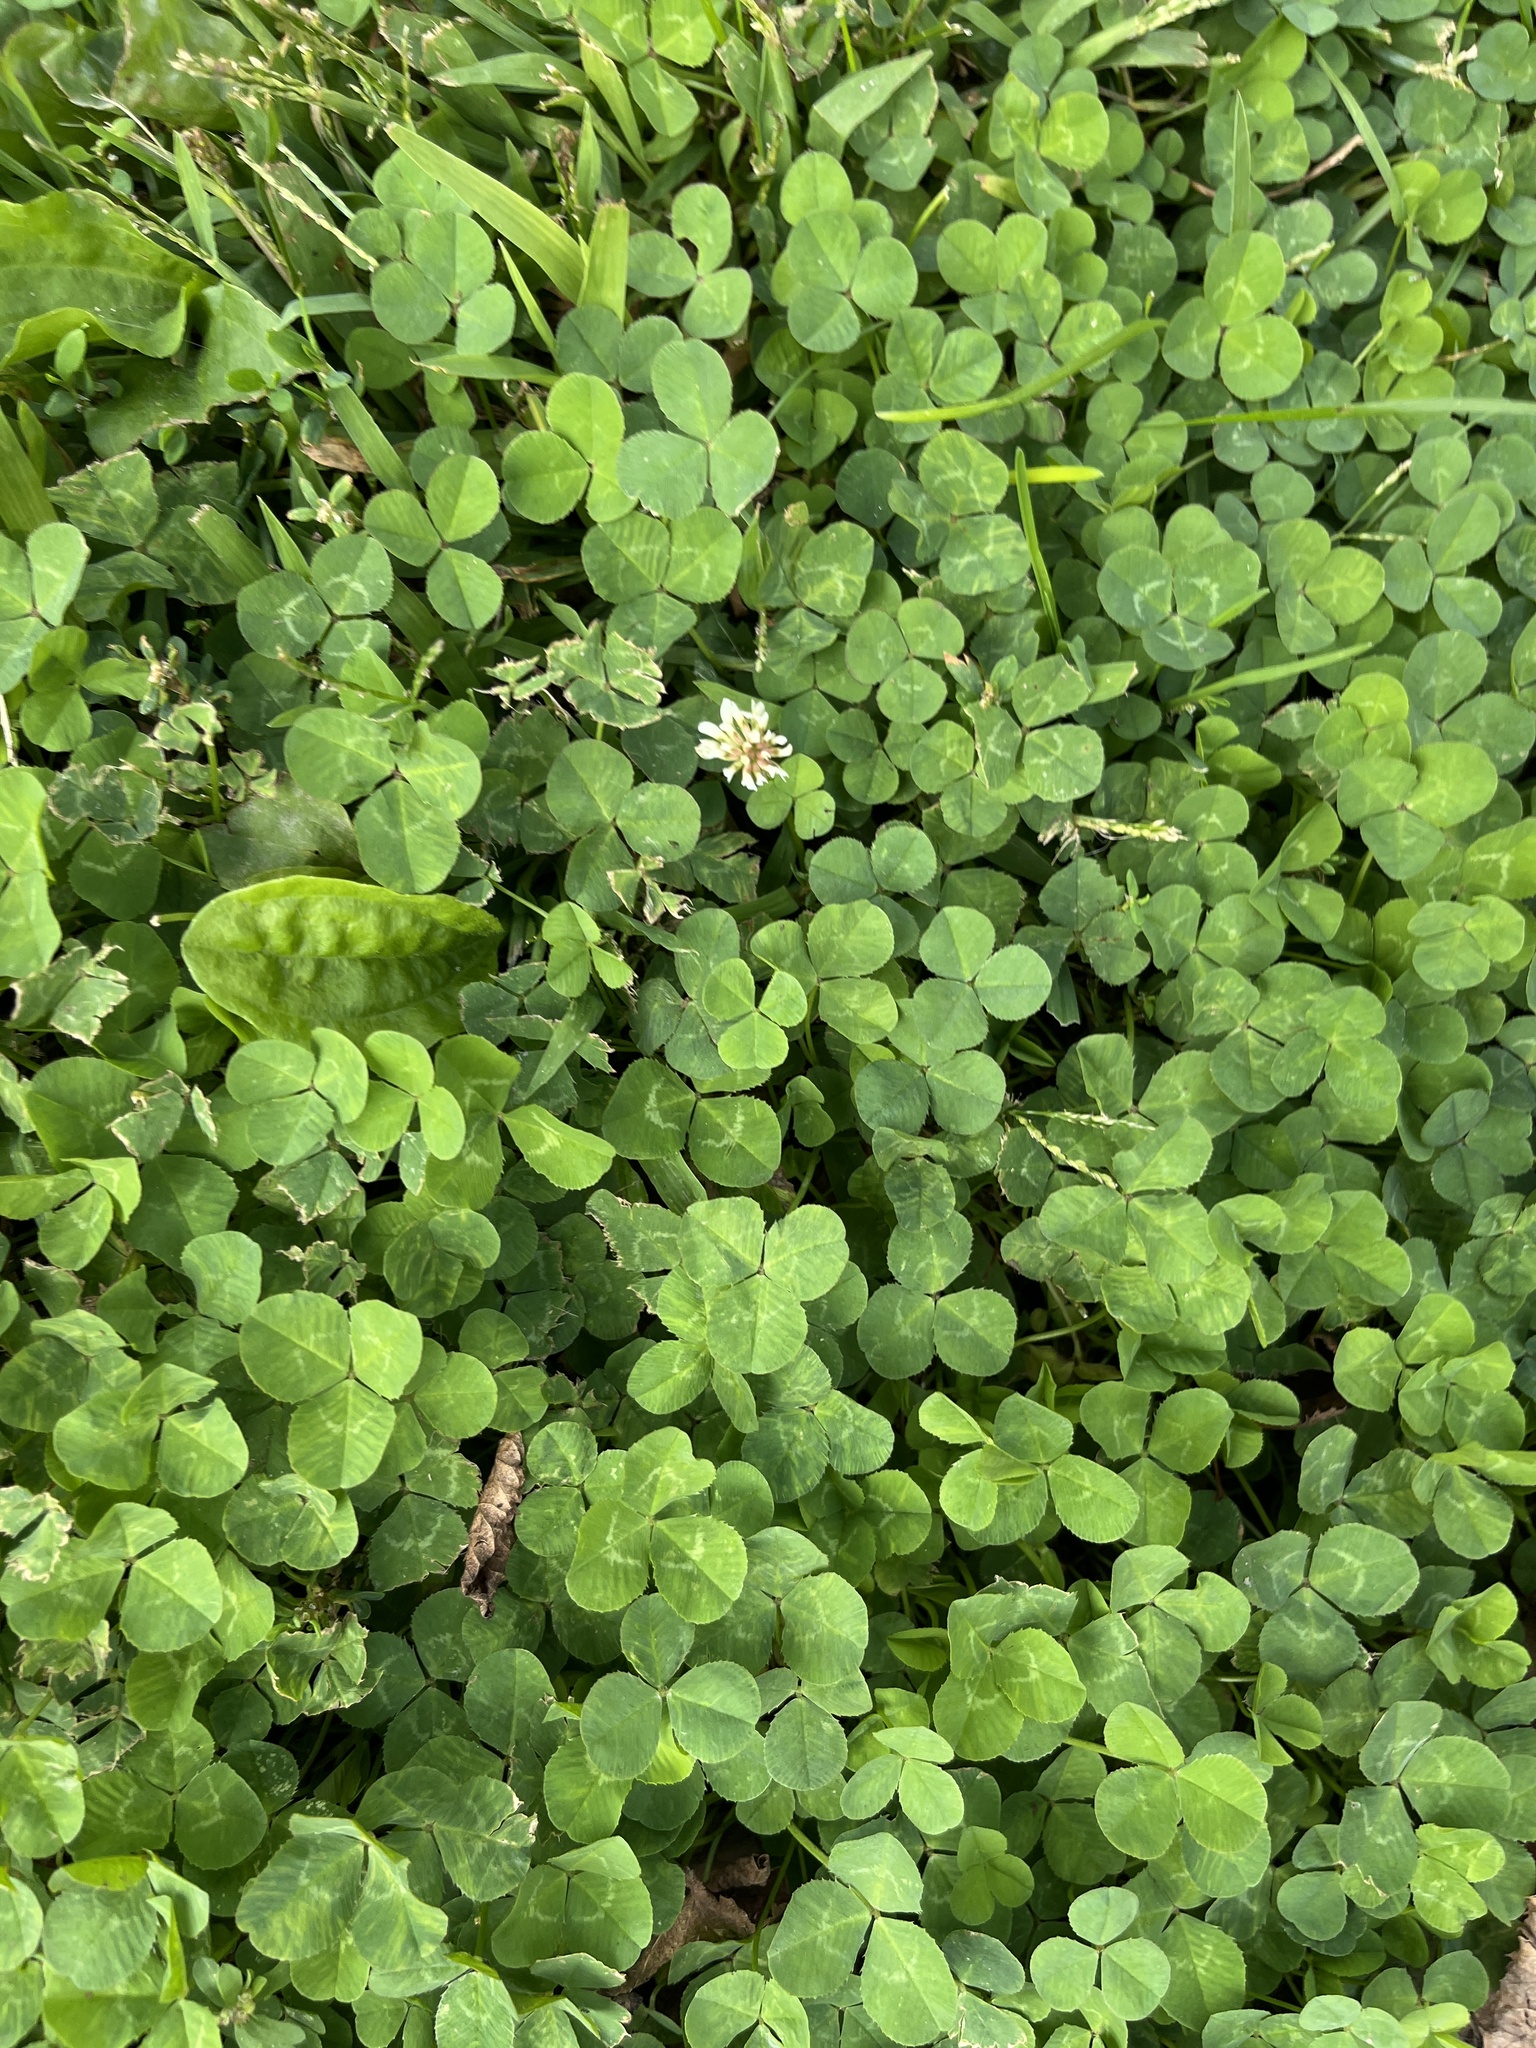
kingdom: Plantae
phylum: Tracheophyta
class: Magnoliopsida
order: Fabales
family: Fabaceae
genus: Trifolium
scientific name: Trifolium repens
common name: White clover
